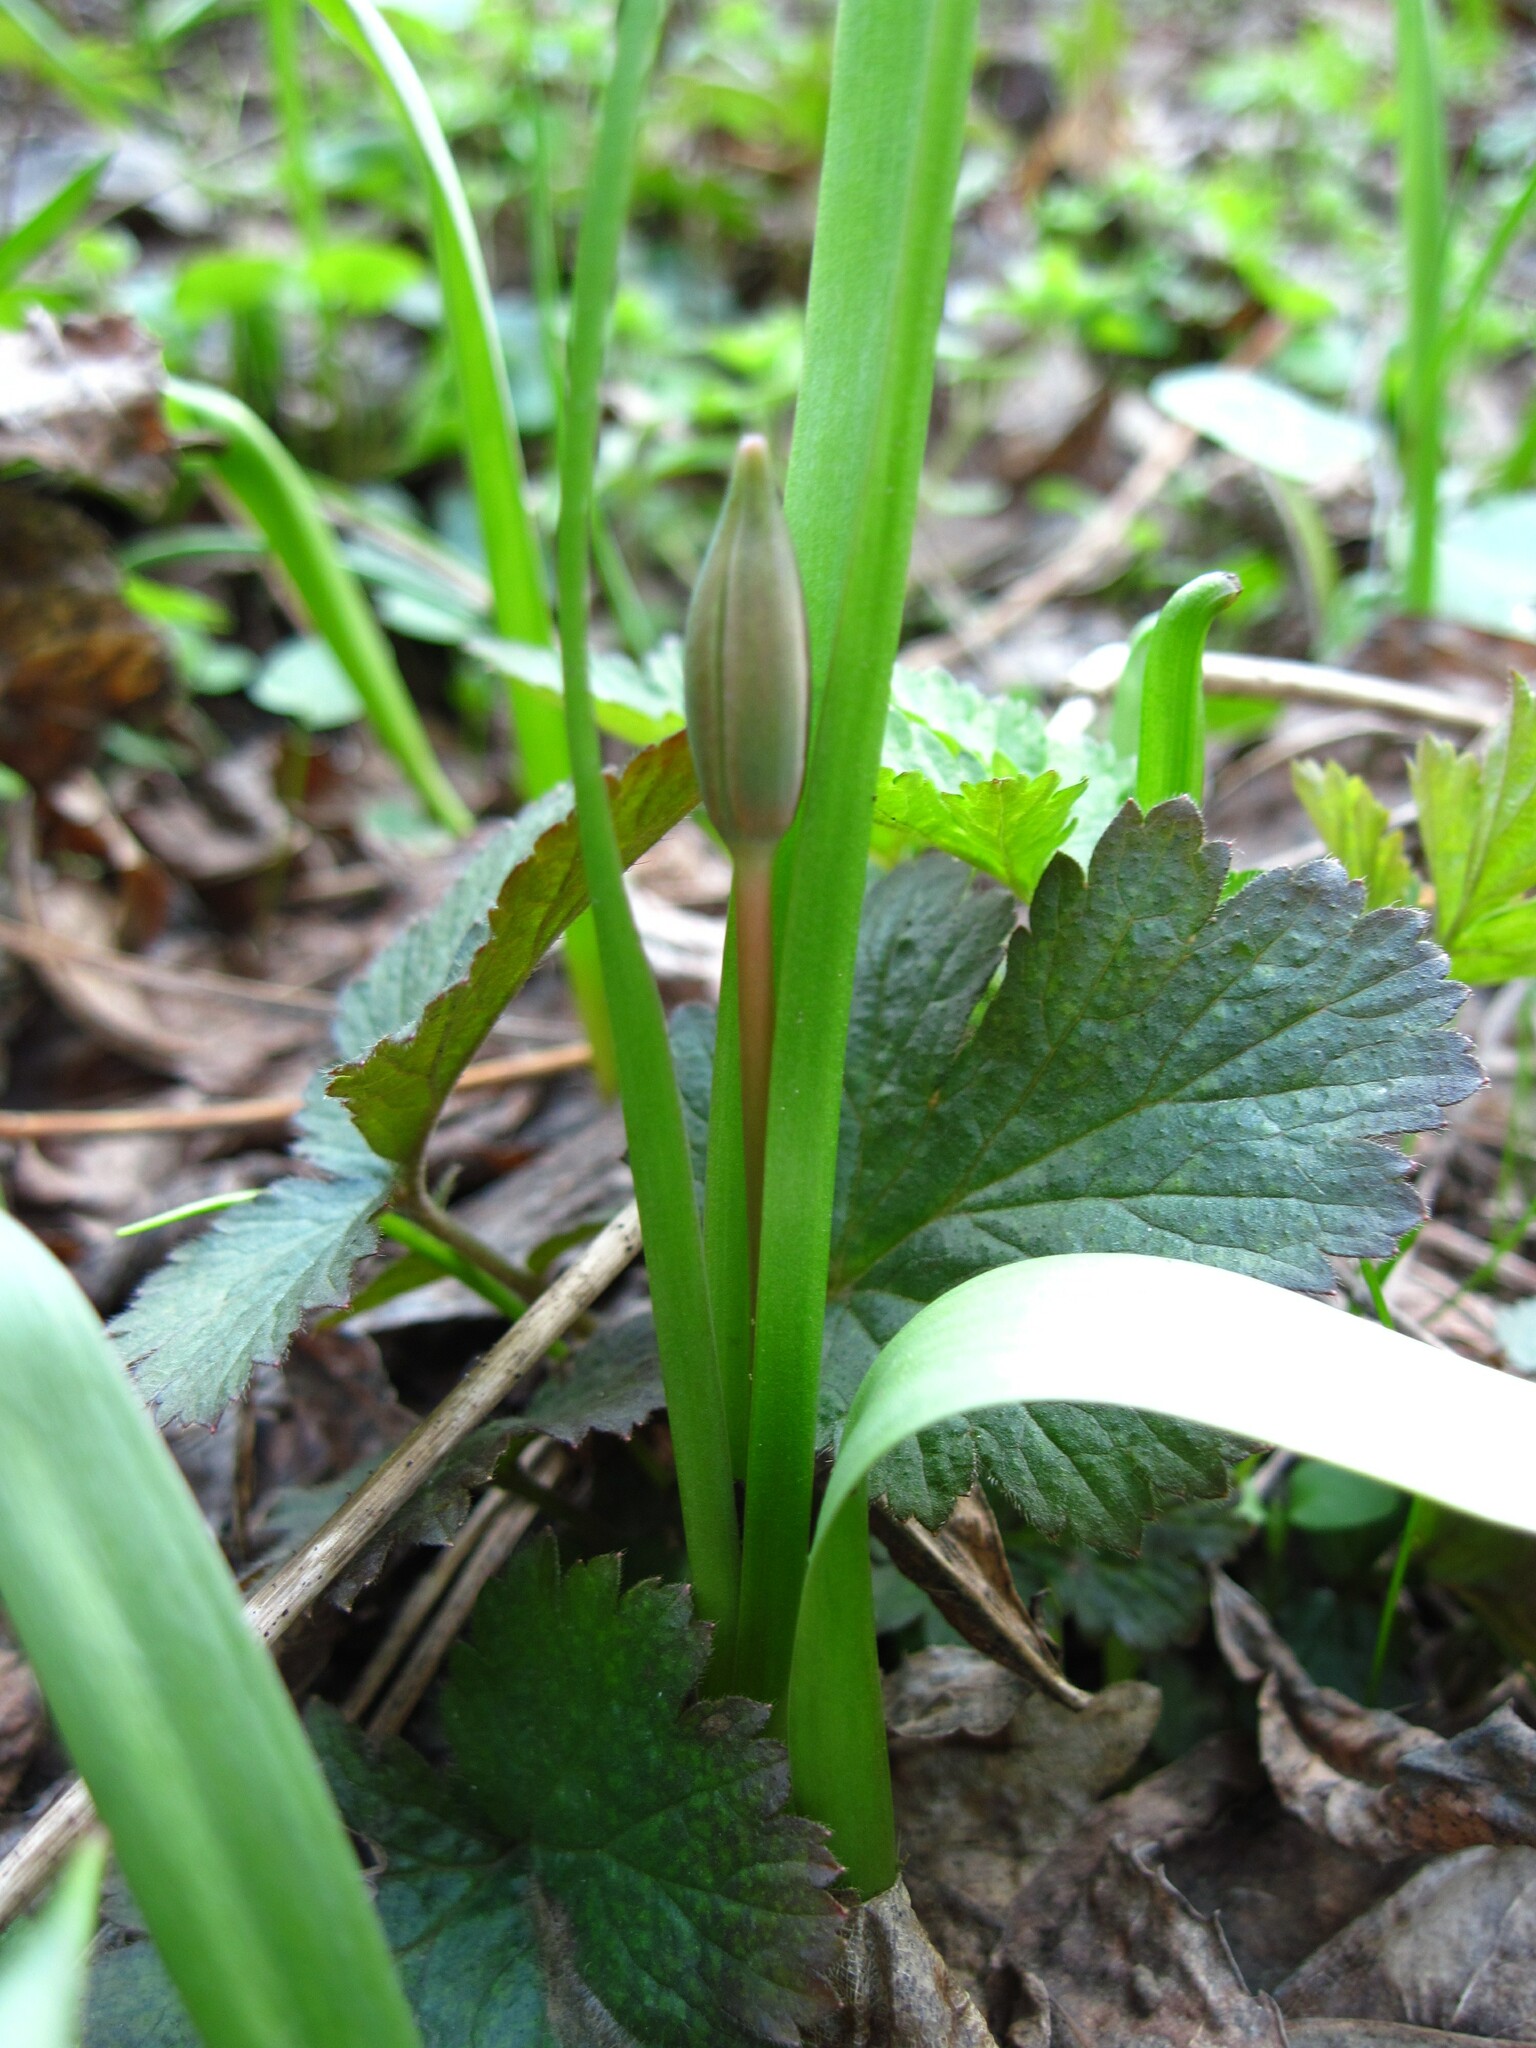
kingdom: Plantae
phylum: Tracheophyta
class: Liliopsida
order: Asparagales
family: Asparagaceae
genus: Scilla
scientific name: Scilla siberica
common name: Siberian squill
